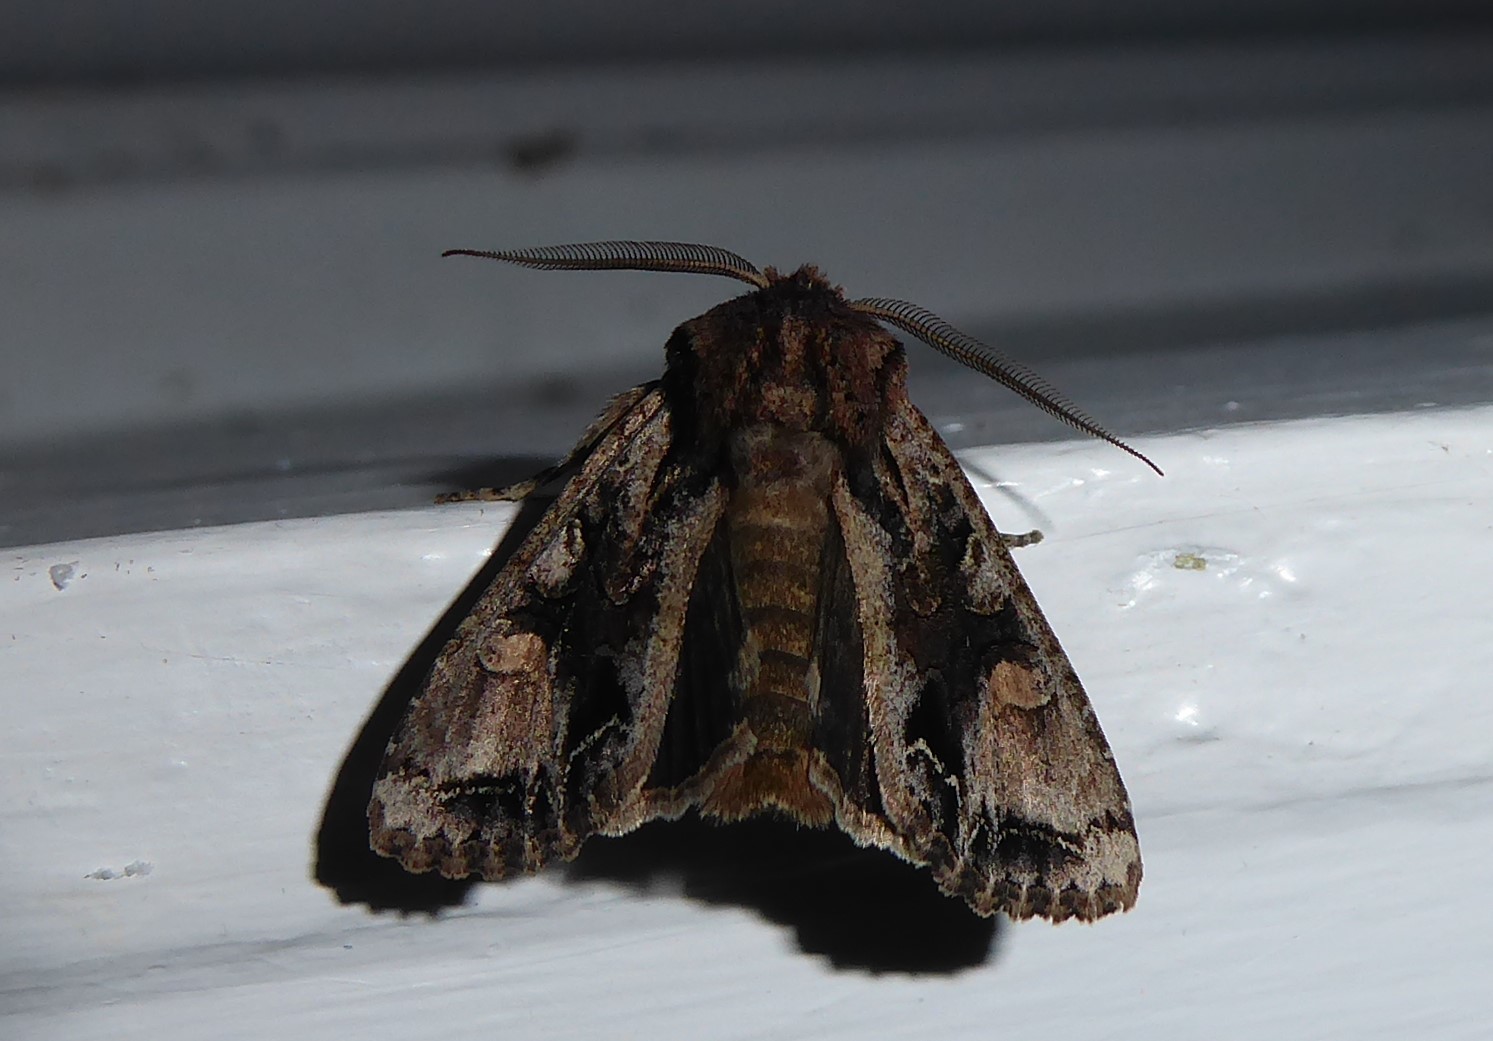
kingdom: Animalia
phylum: Arthropoda
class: Insecta
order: Lepidoptera
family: Noctuidae
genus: Ichneutica
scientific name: Ichneutica
